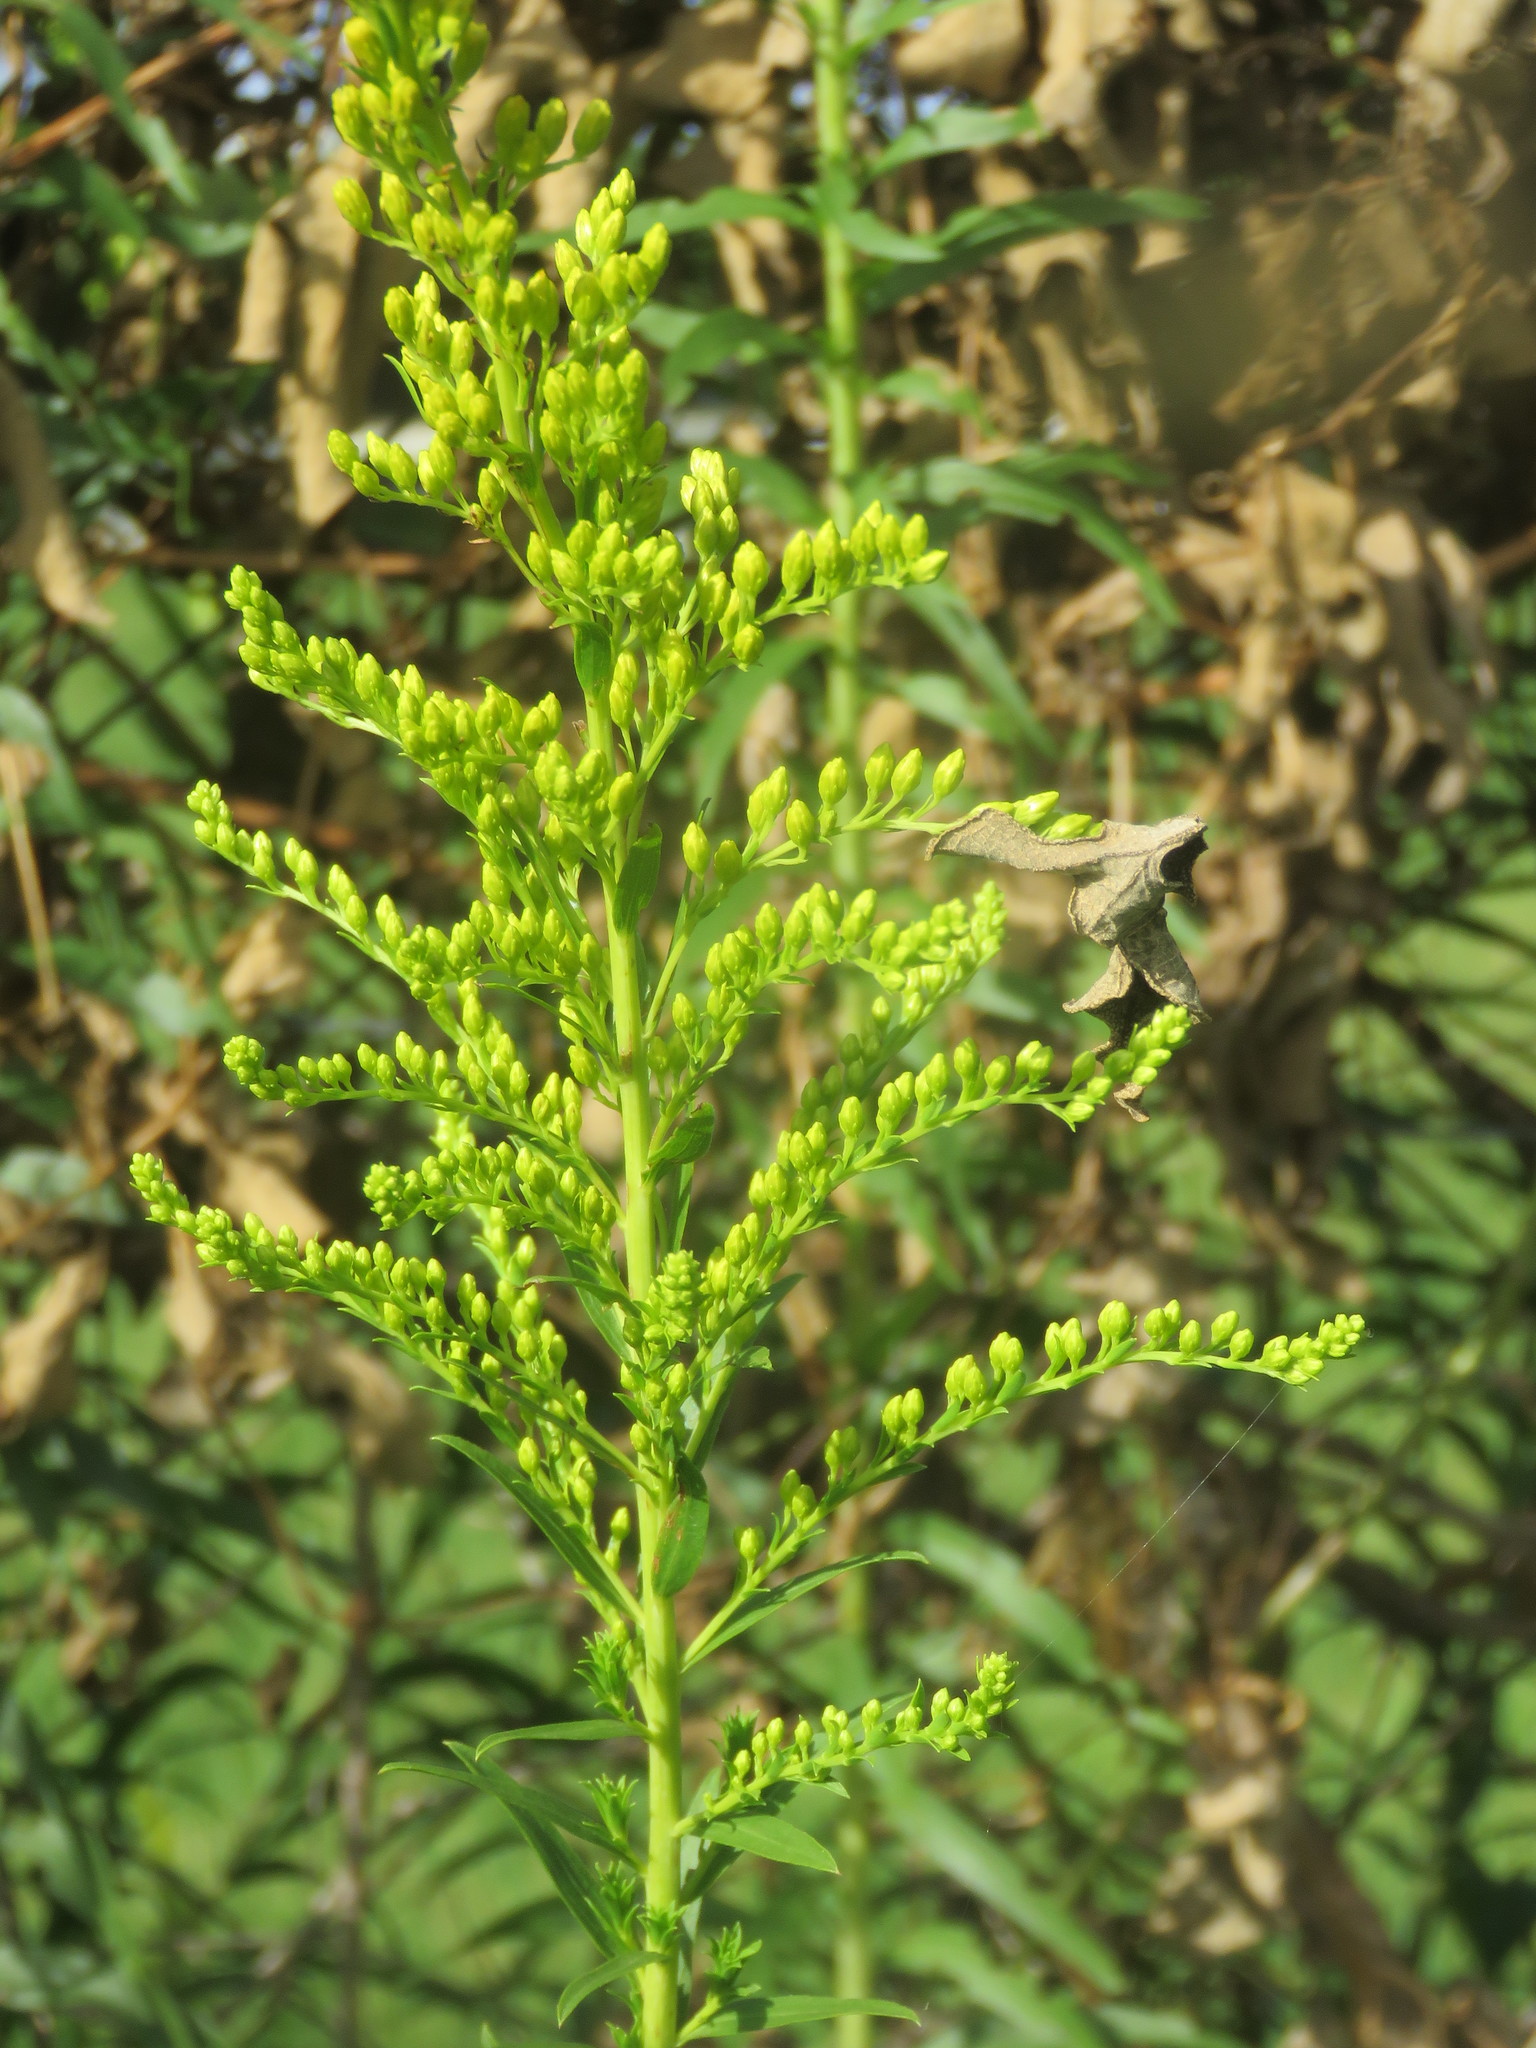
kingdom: Plantae
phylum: Tracheophyta
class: Magnoliopsida
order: Asterales
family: Asteraceae
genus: Solidago
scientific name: Solidago chilensis
